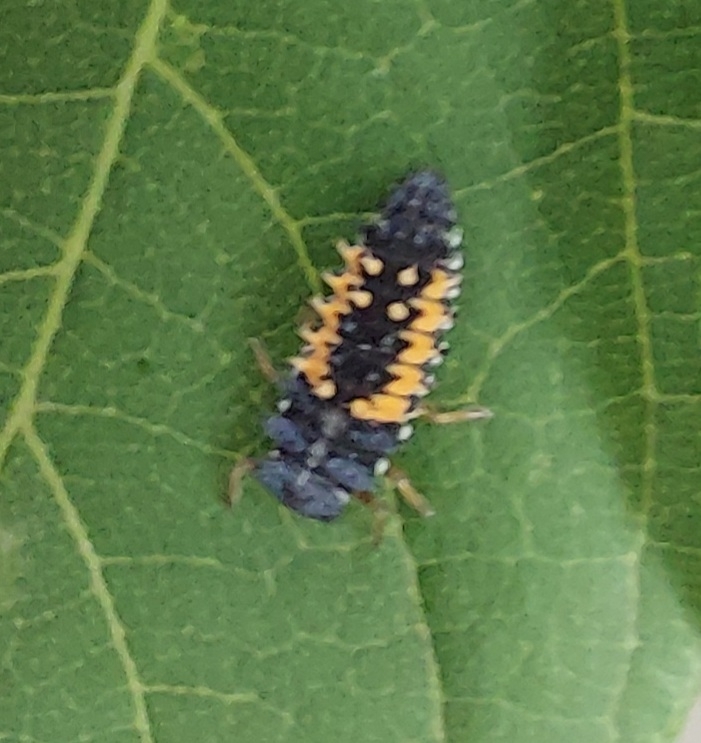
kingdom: Animalia
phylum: Arthropoda
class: Insecta
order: Coleoptera
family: Coccinellidae
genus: Harmonia
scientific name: Harmonia axyridis
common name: Harlequin ladybird
